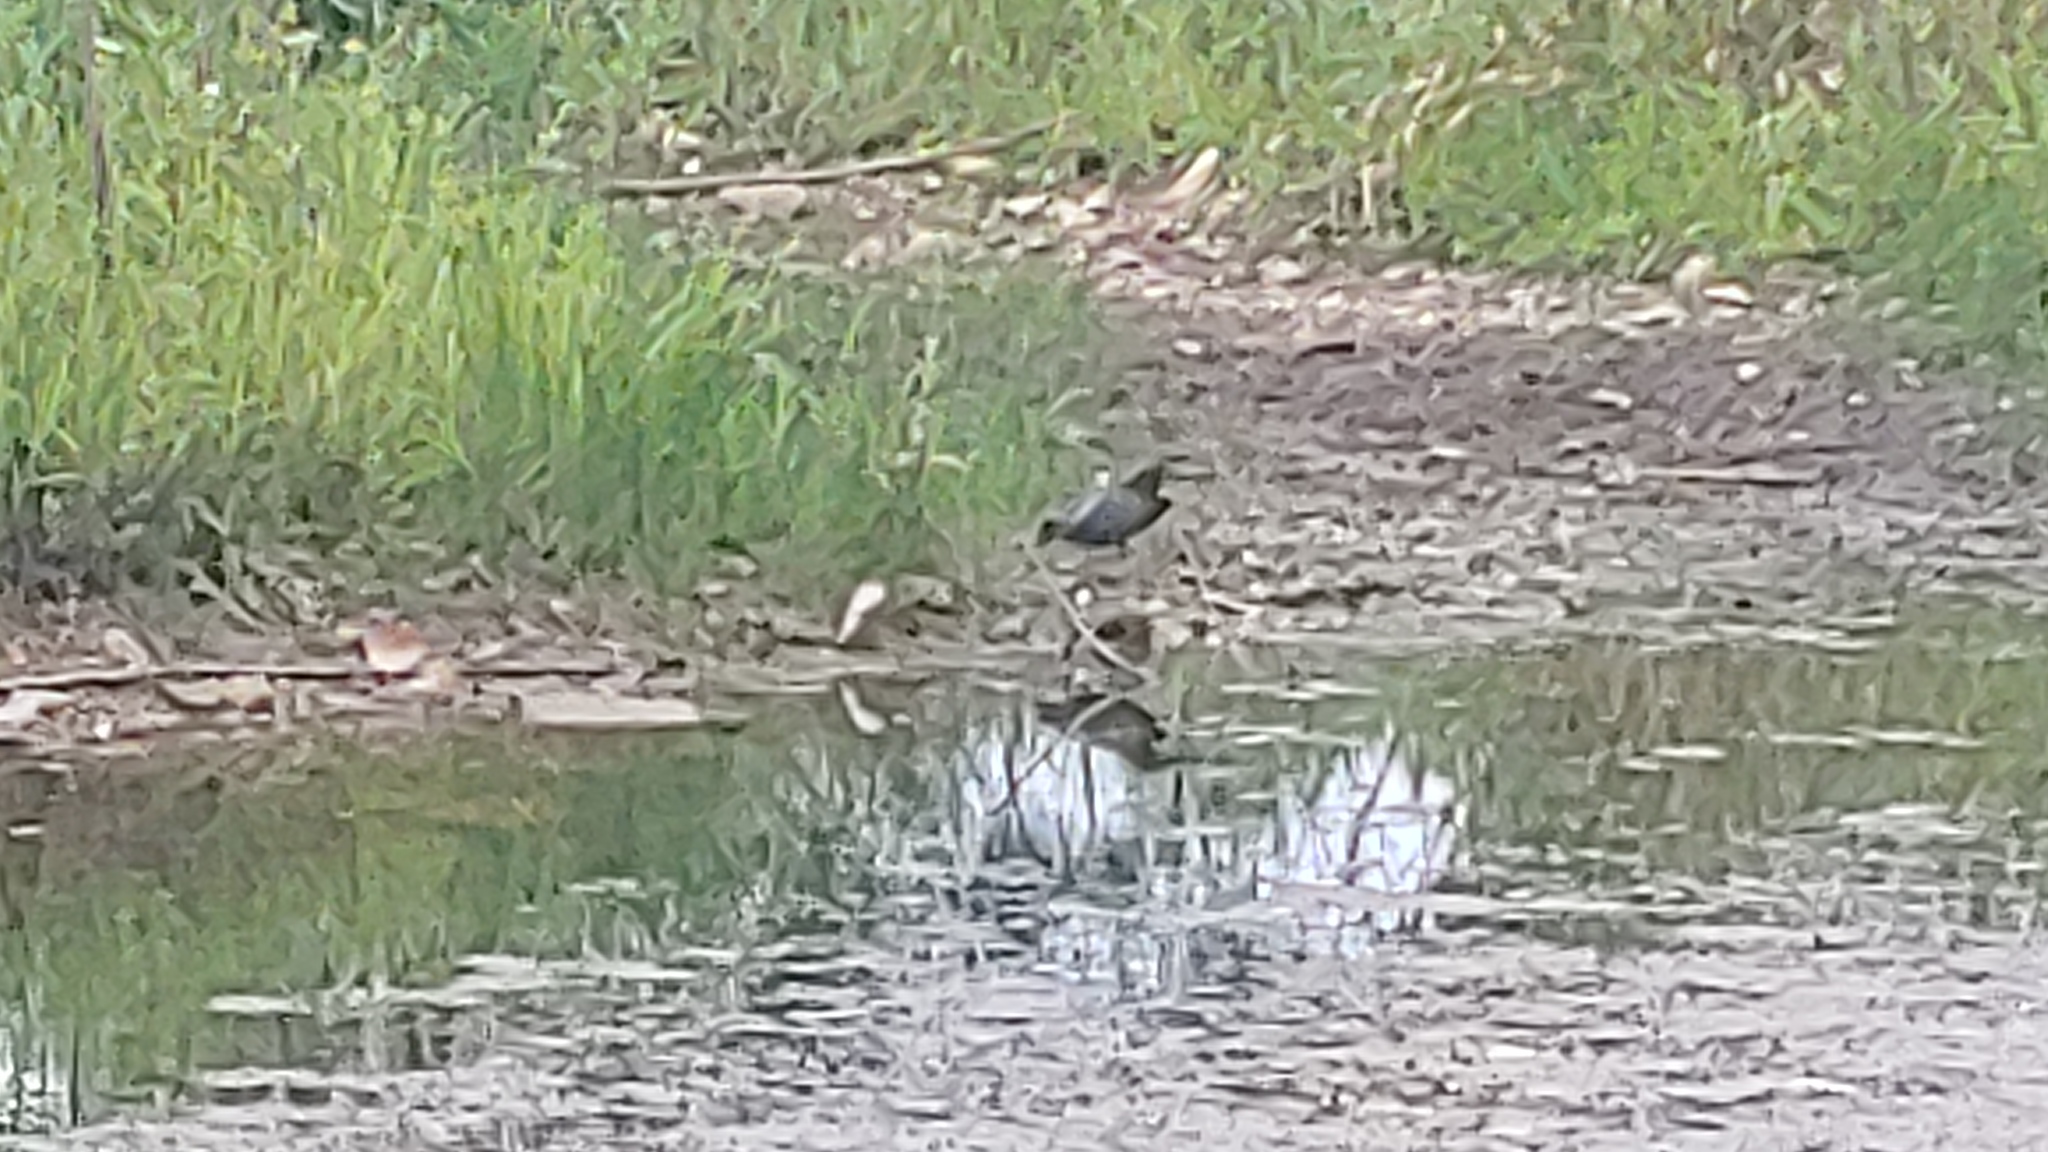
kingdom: Animalia
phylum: Chordata
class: Aves
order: Pelecaniformes
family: Ardeidae
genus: Butorides
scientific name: Butorides virescens
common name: Green heron
